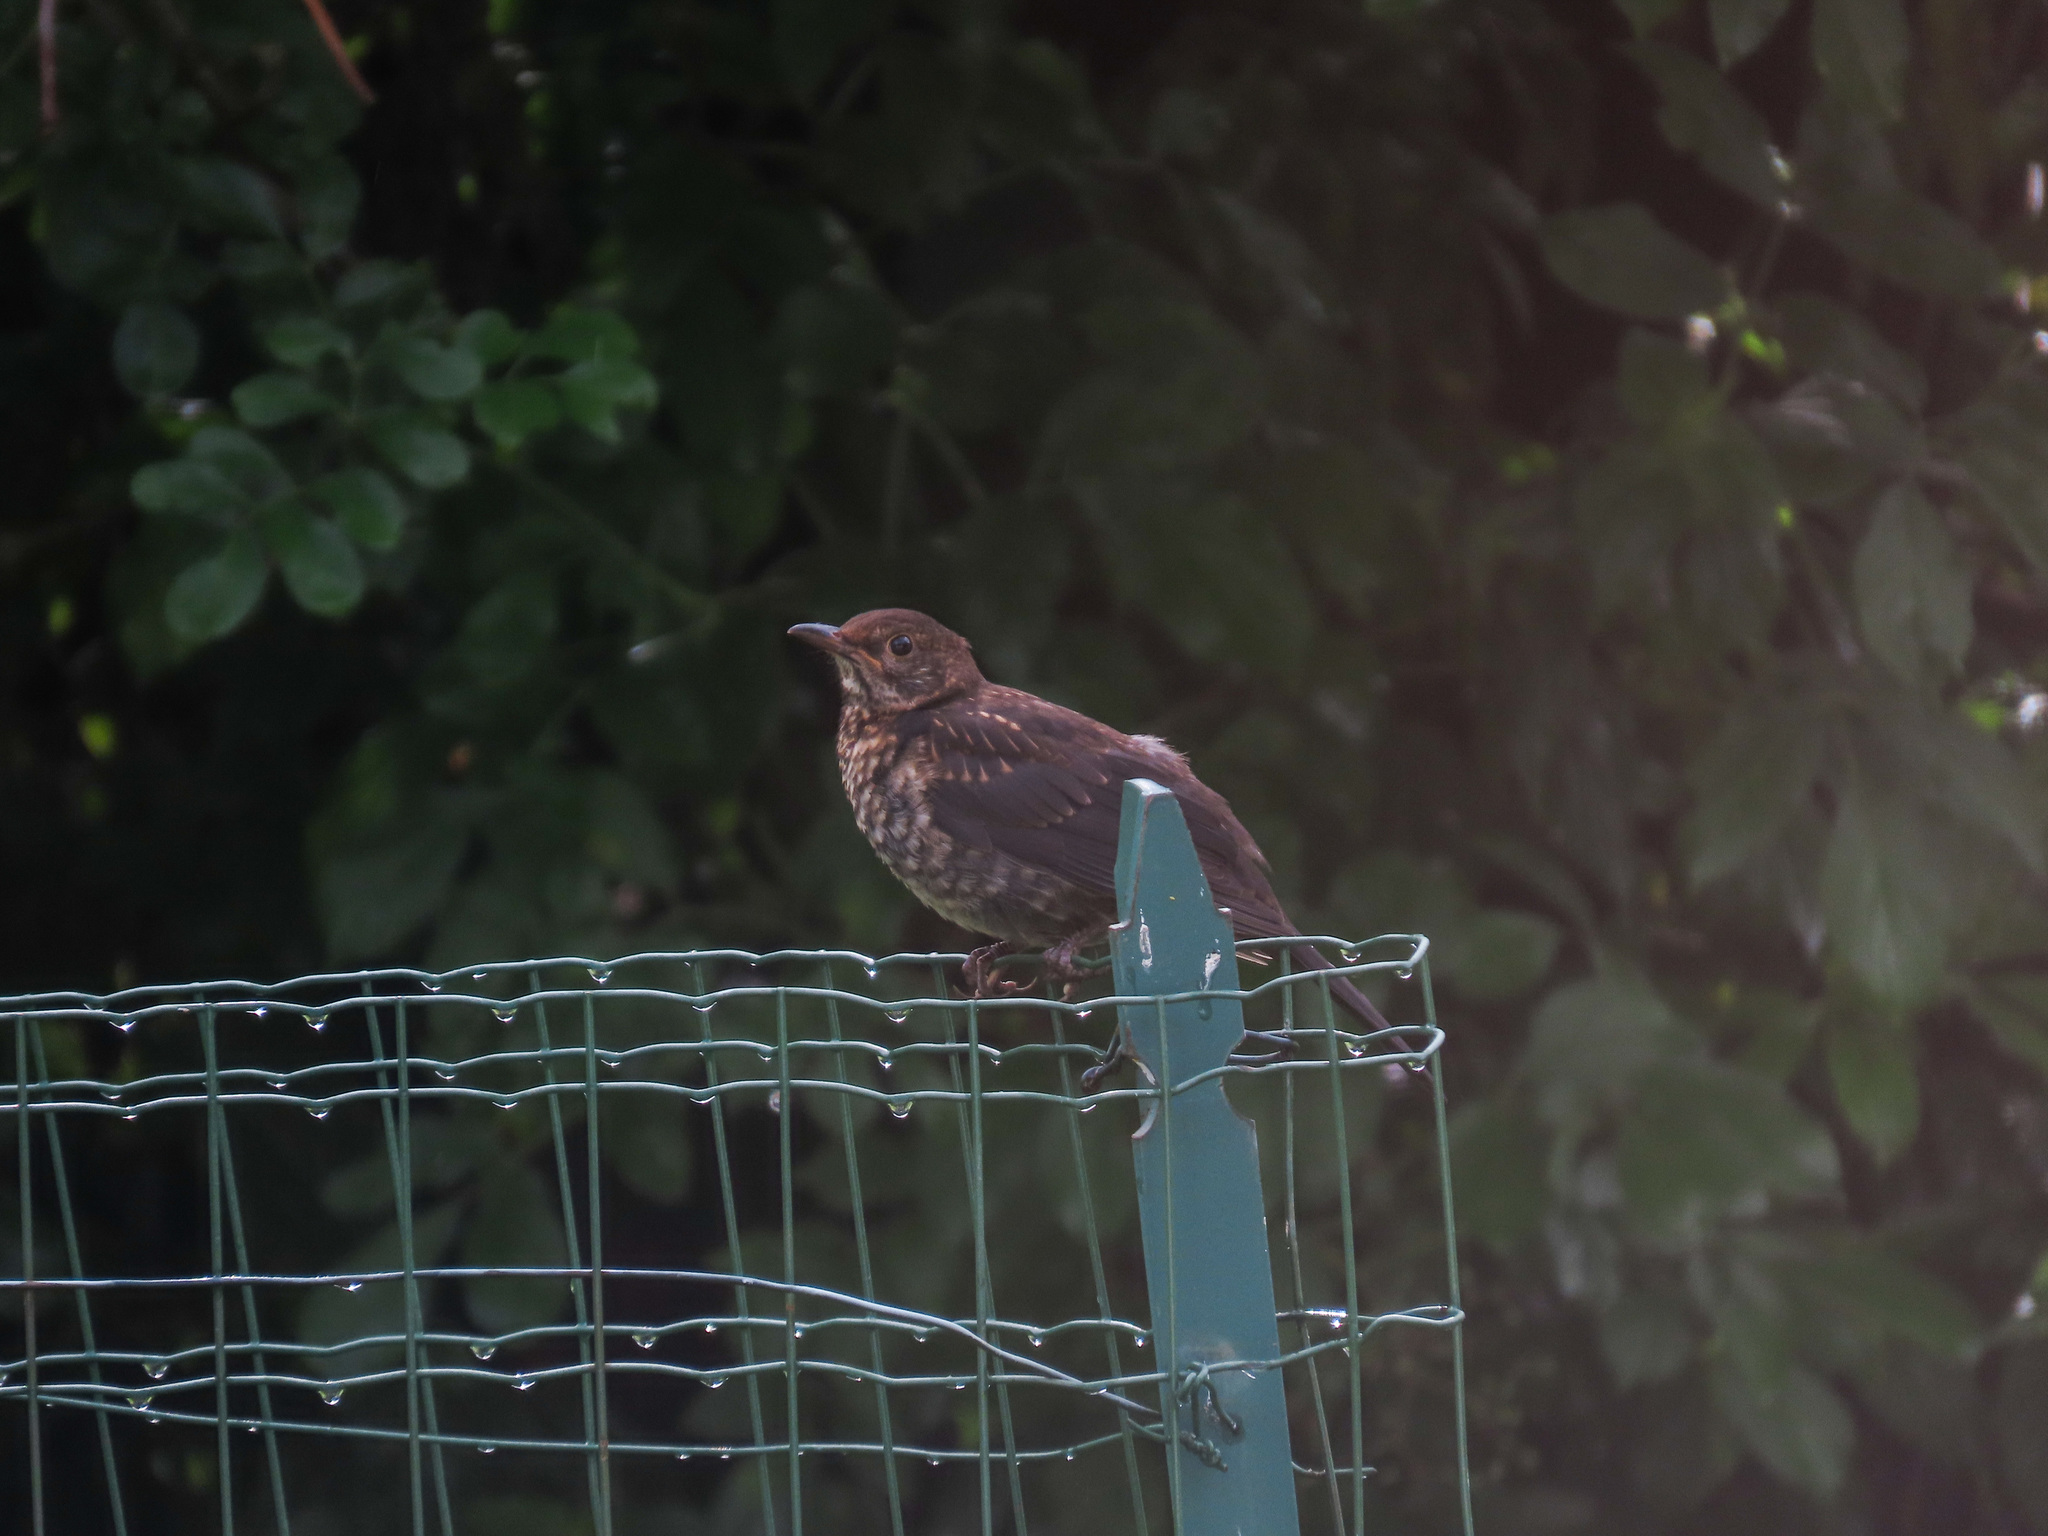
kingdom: Animalia
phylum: Chordata
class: Aves
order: Passeriformes
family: Turdidae
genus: Turdus
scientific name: Turdus merula
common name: Common blackbird
